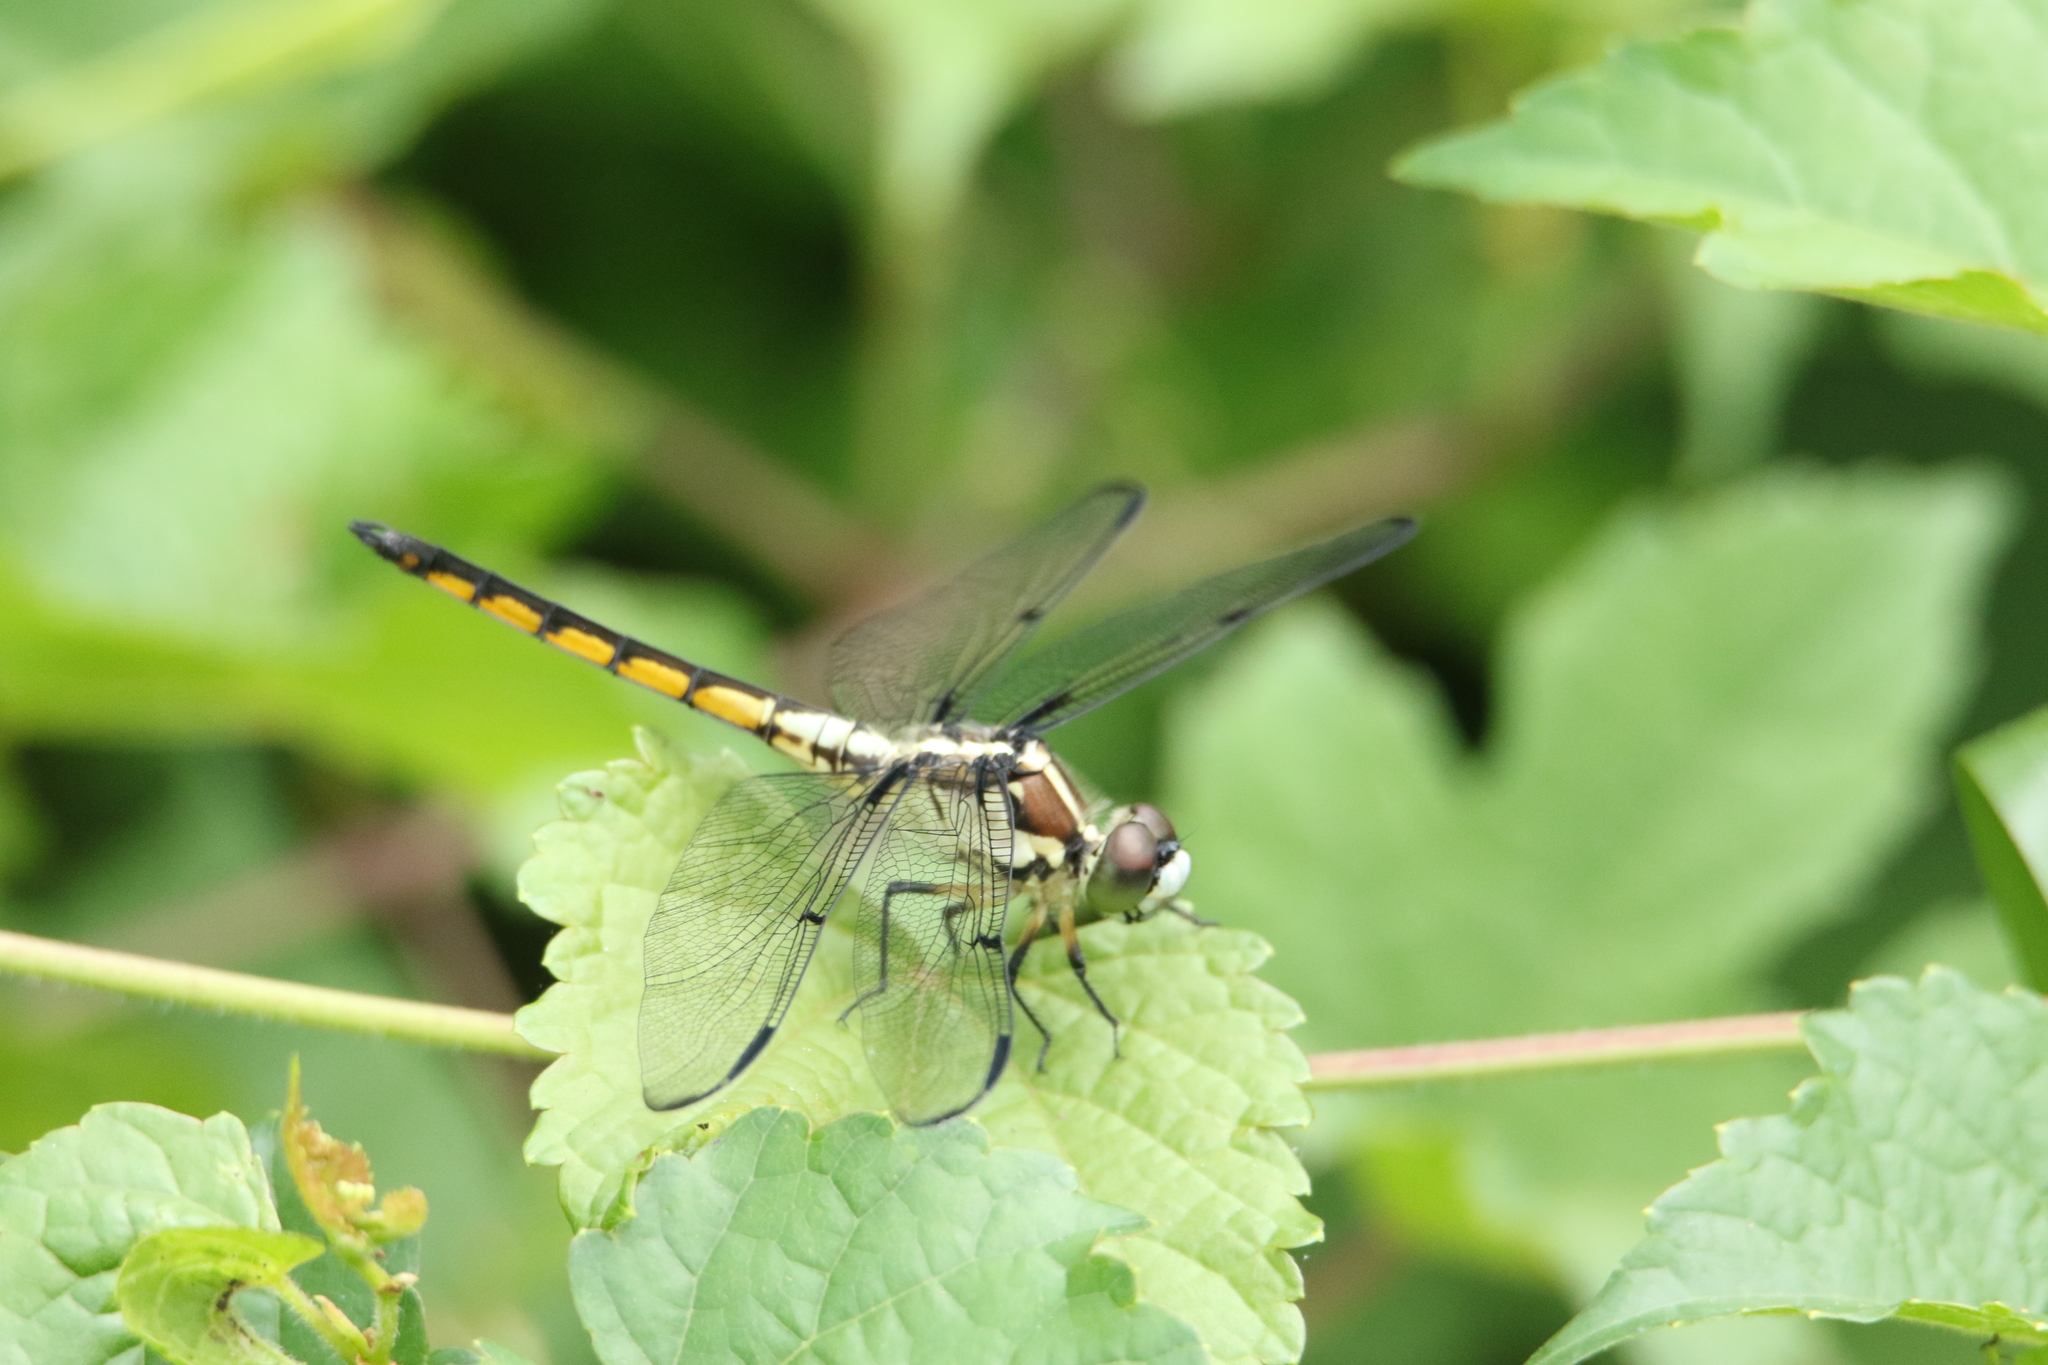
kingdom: Animalia
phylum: Arthropoda
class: Insecta
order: Odonata
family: Libellulidae
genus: Libellula
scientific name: Libellula vibrans
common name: Great blue skimmer
